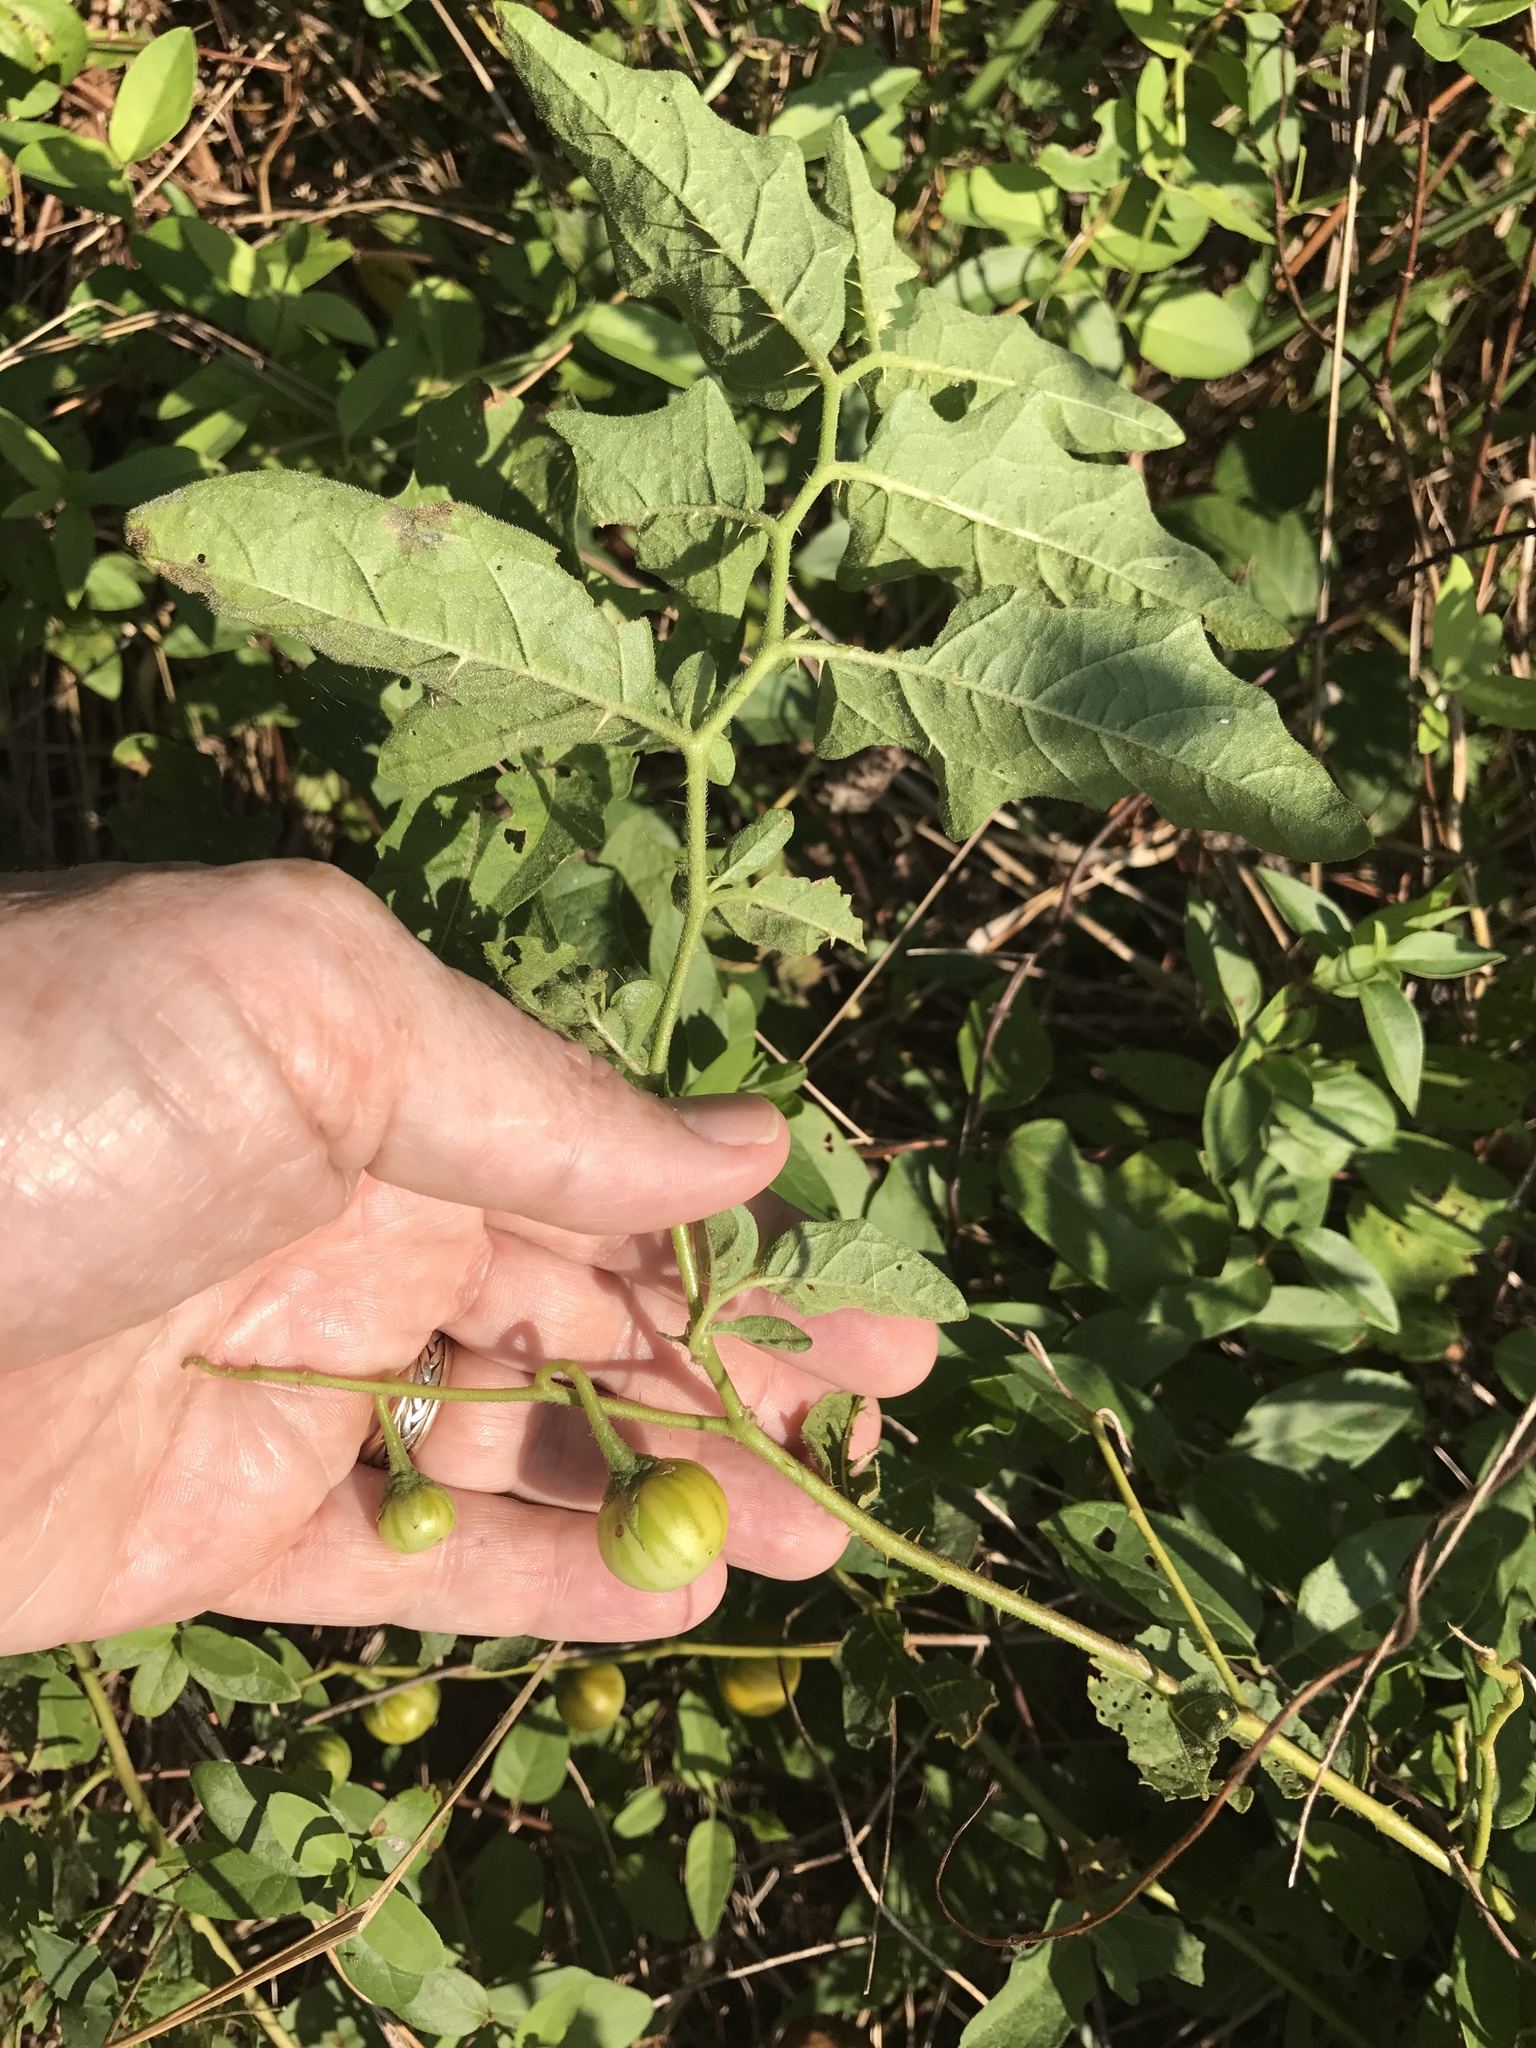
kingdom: Plantae
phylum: Tracheophyta
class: Magnoliopsida
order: Solanales
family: Solanaceae
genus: Solanum
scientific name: Solanum carolinense
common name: Horse-nettle
